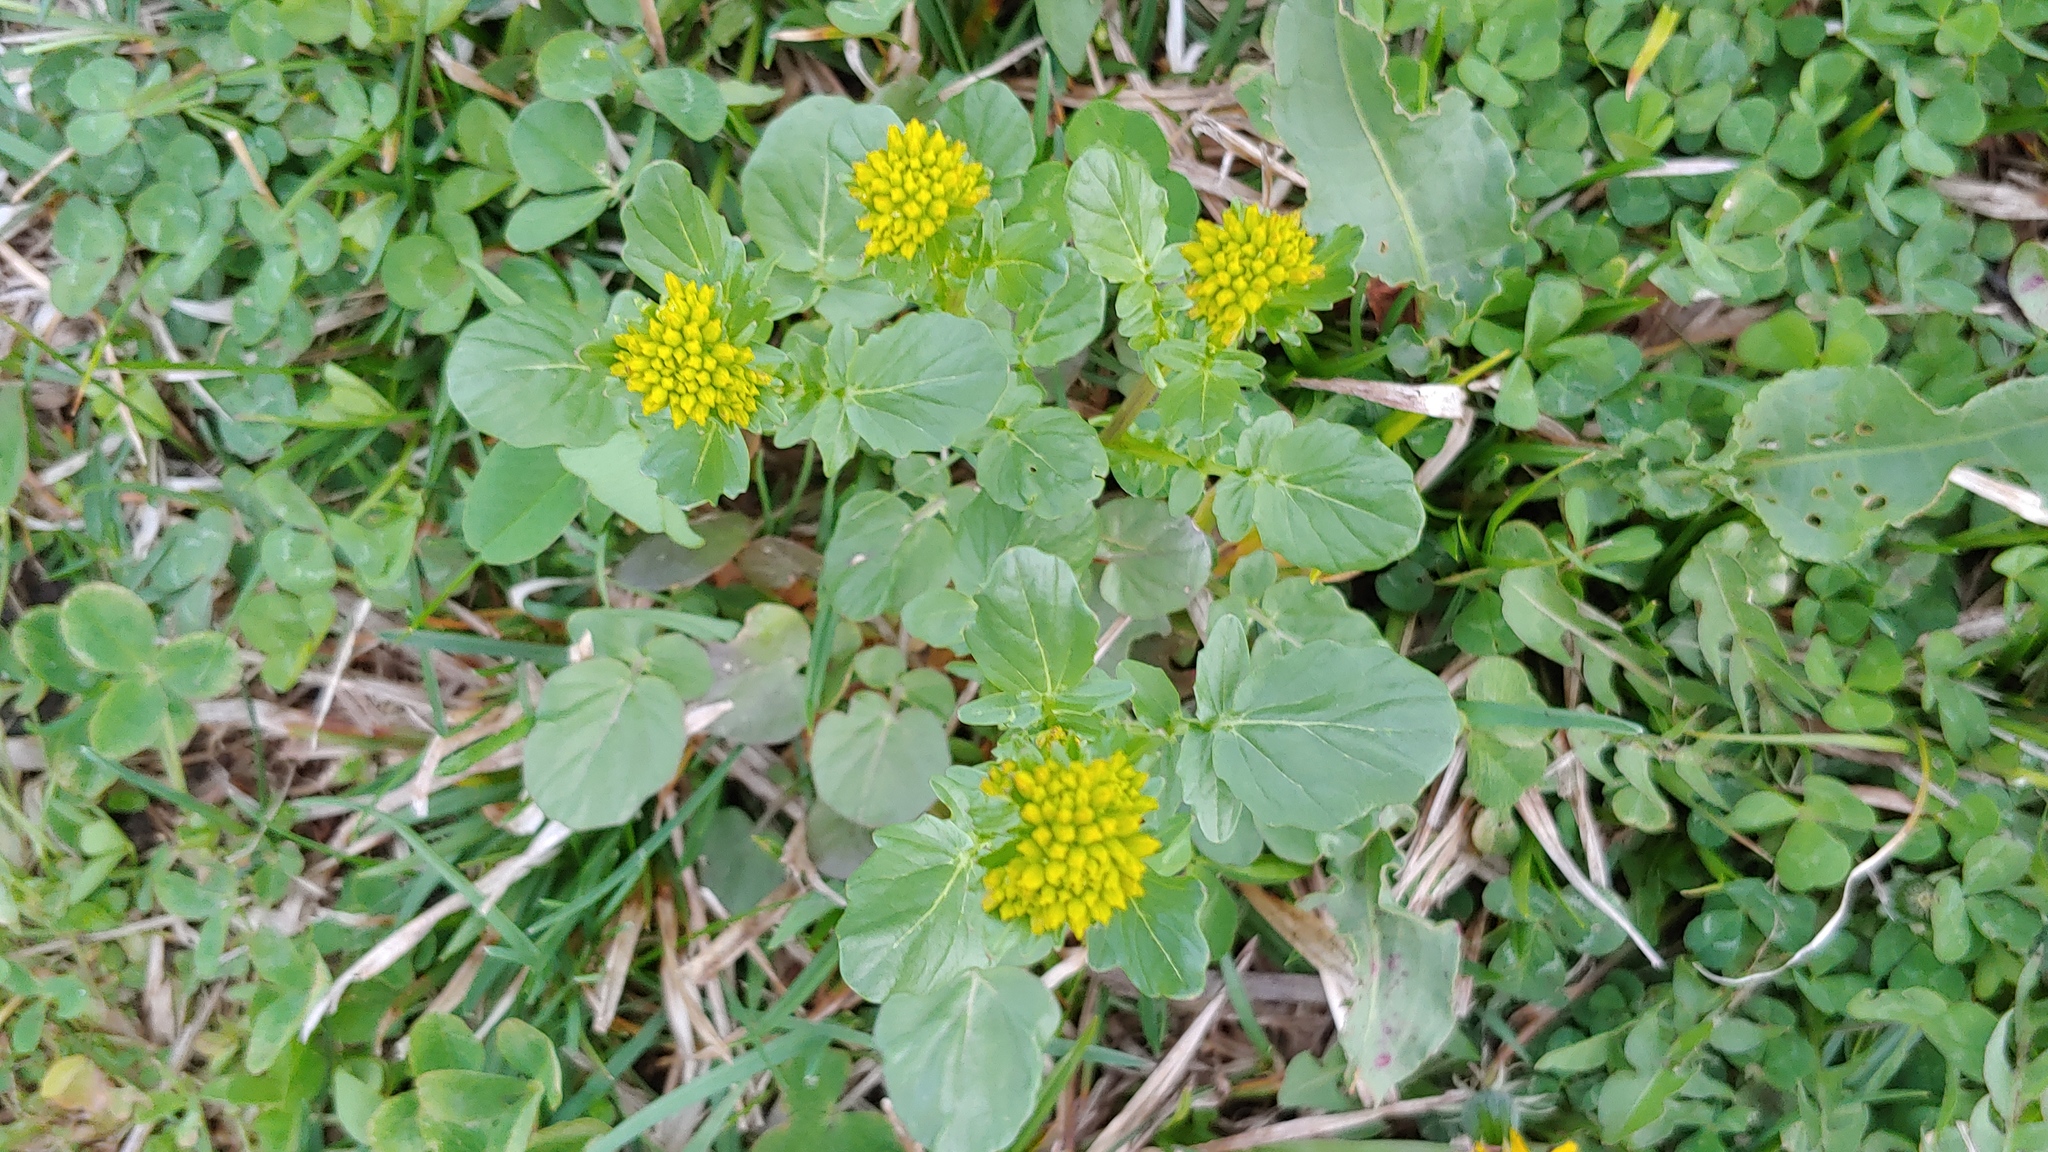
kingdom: Plantae
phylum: Tracheophyta
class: Magnoliopsida
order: Brassicales
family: Brassicaceae
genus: Barbarea
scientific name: Barbarea vulgaris
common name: Cressy-greens
